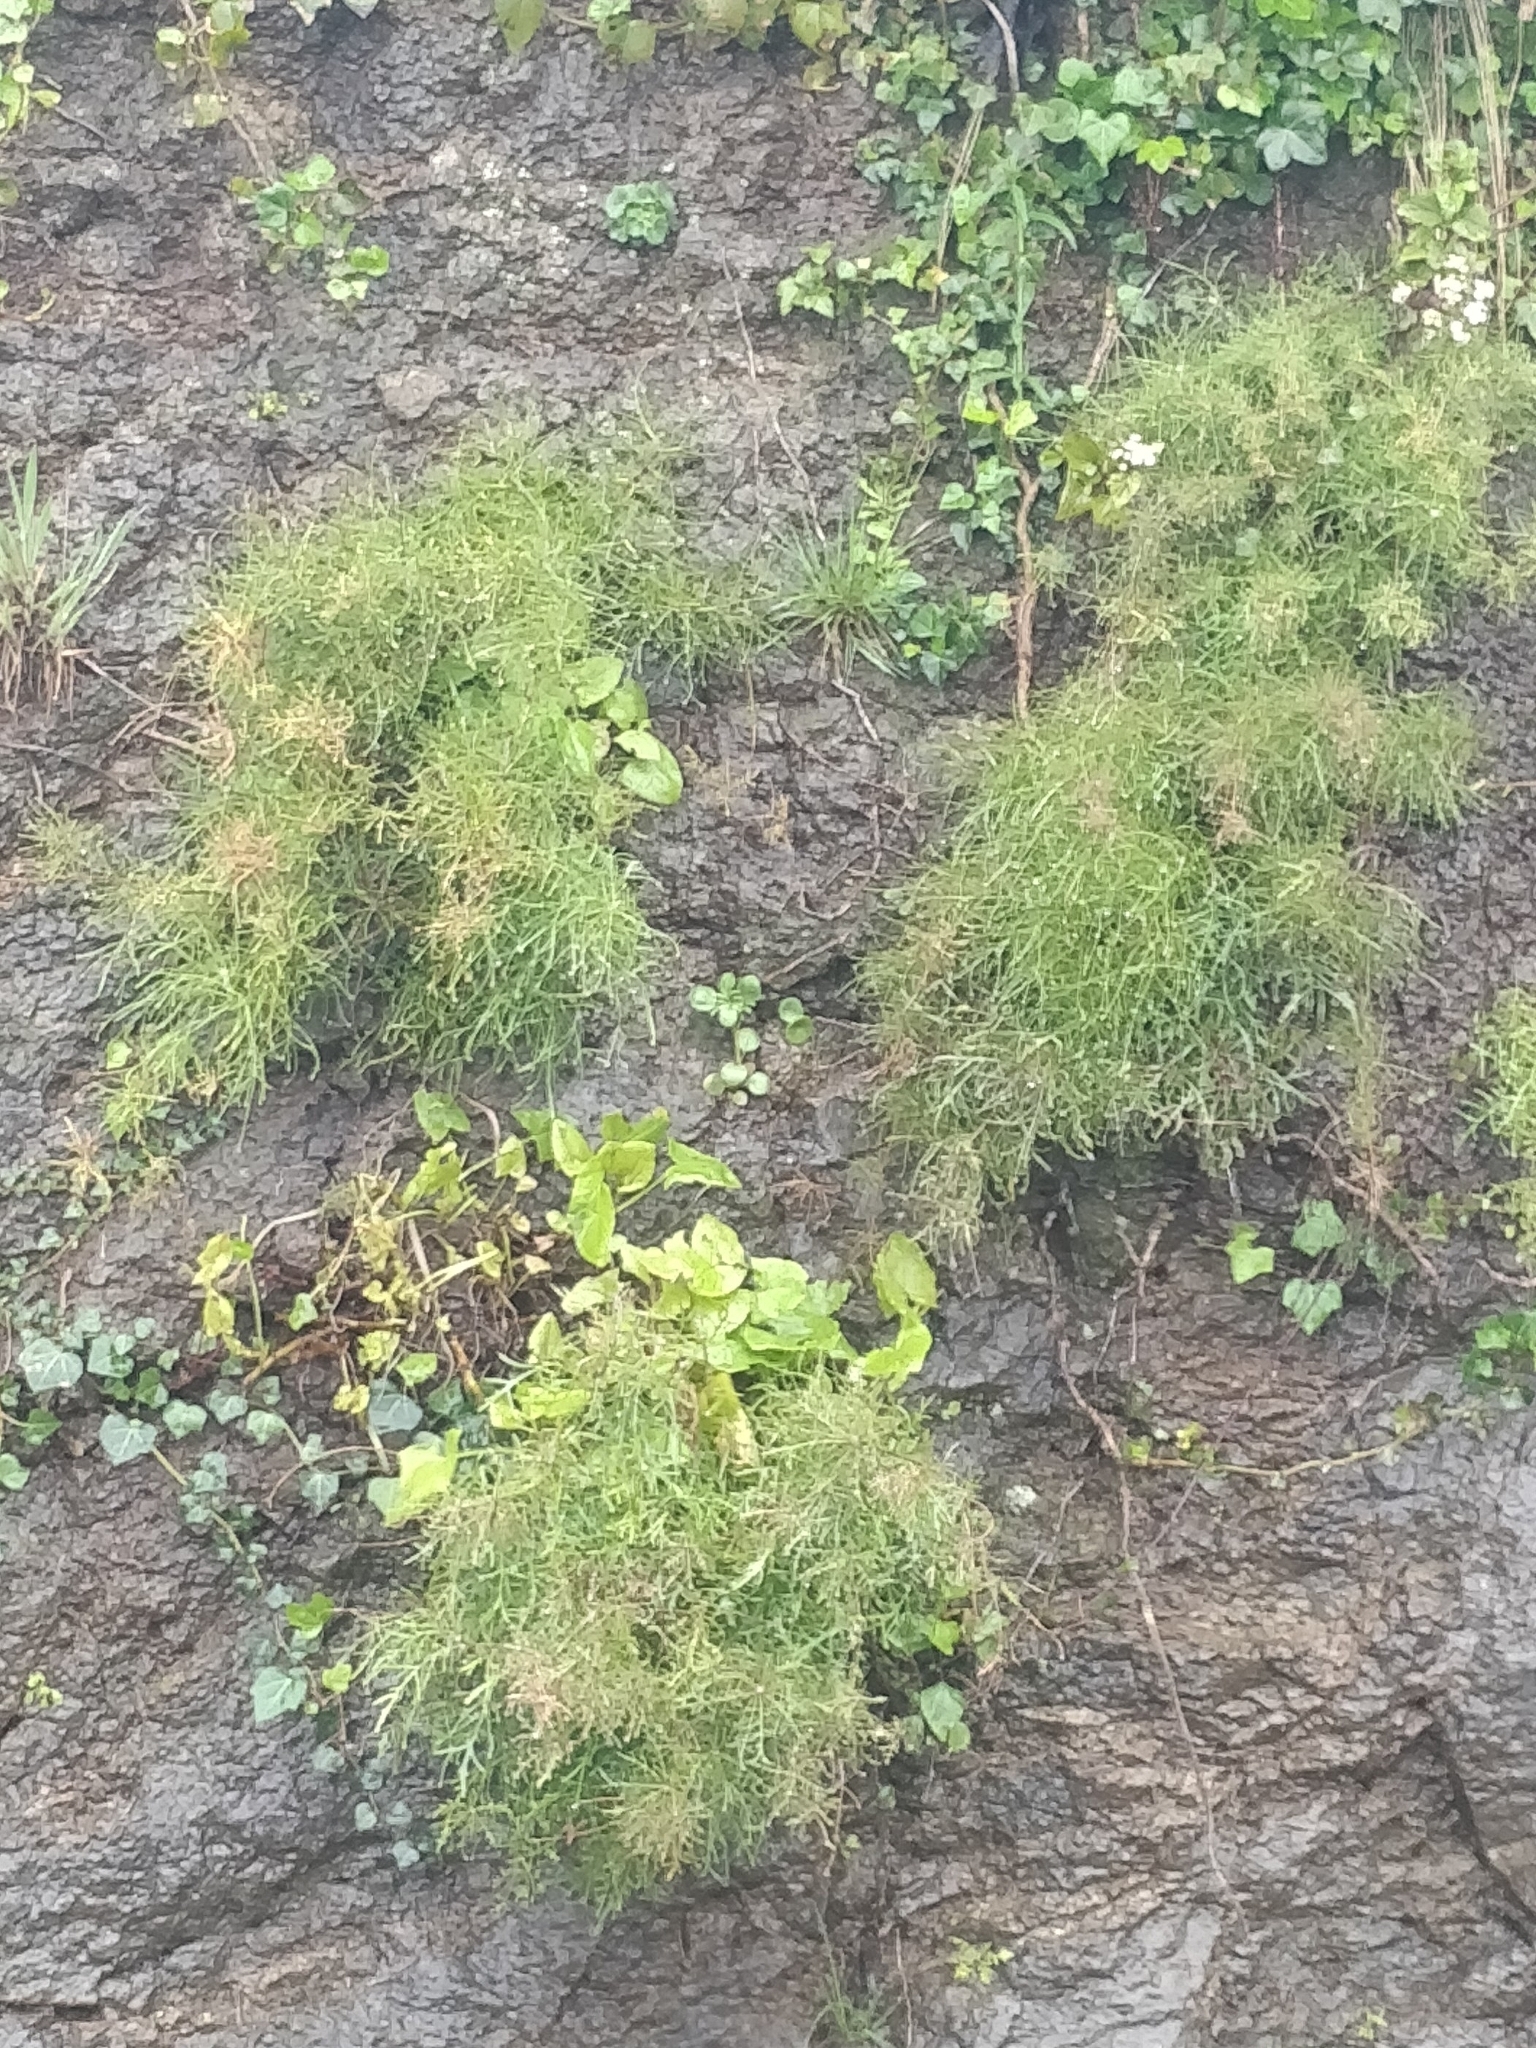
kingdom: Plantae
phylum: Tracheophyta
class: Magnoliopsida
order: Asterales
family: Asteraceae
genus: Tolpis
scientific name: Tolpis succulenta
